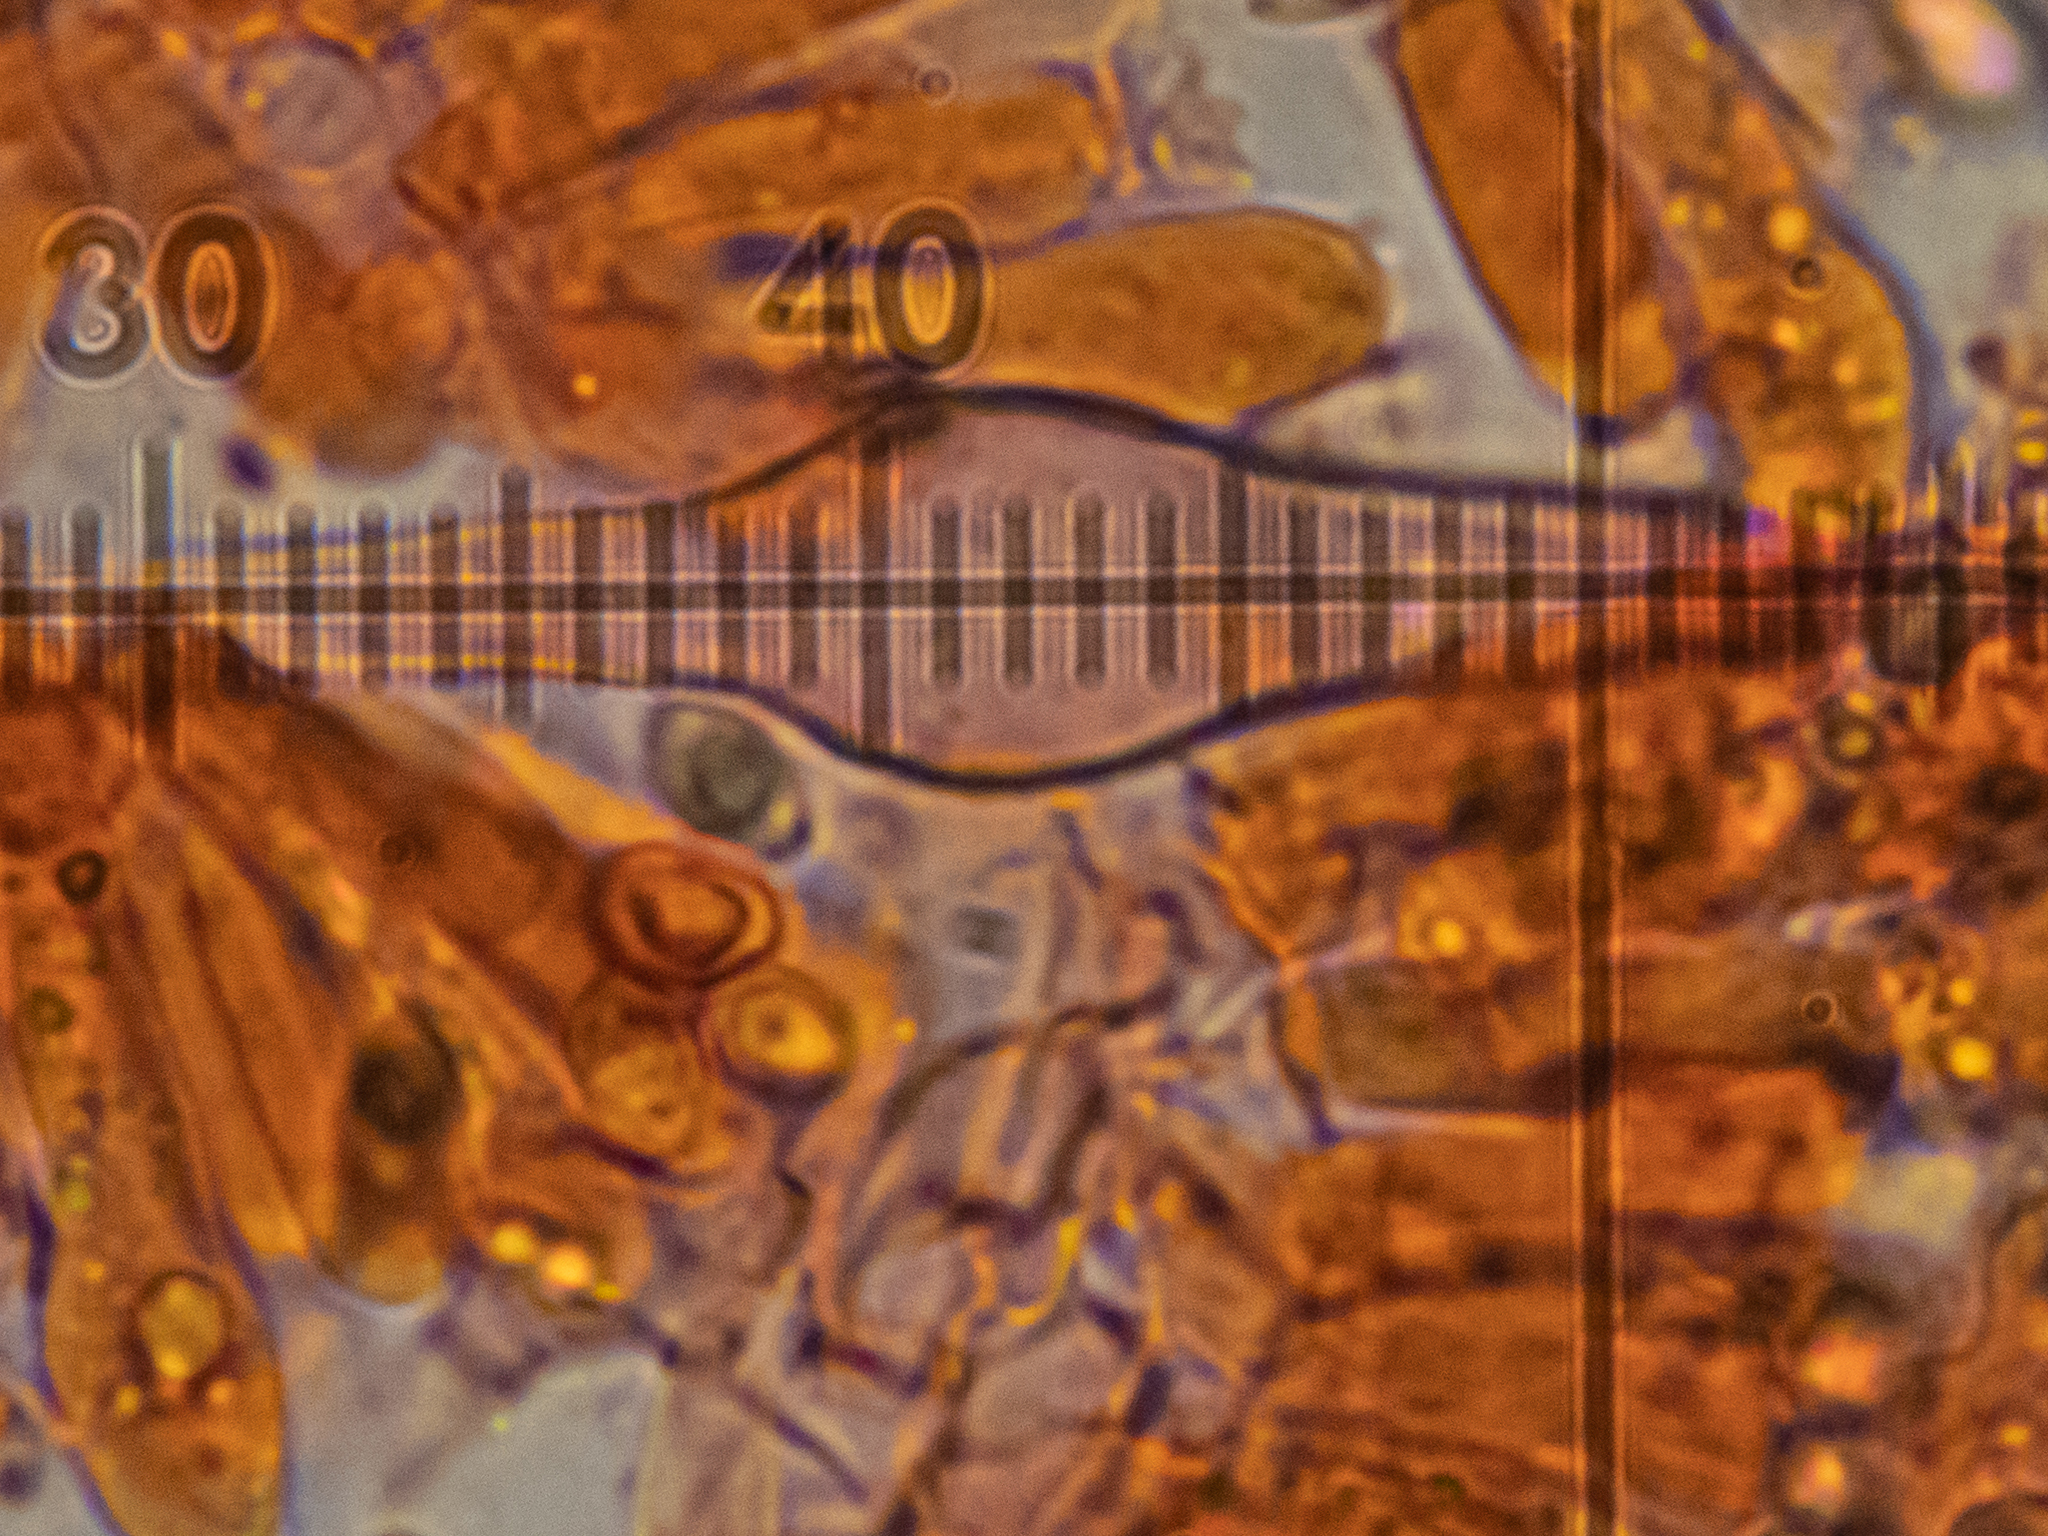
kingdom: Fungi
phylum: Basidiomycota
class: Agaricomycetes
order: Agaricales
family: Tricholomataceae
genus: Melanoleuca
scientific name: Melanoleuca strictipes
